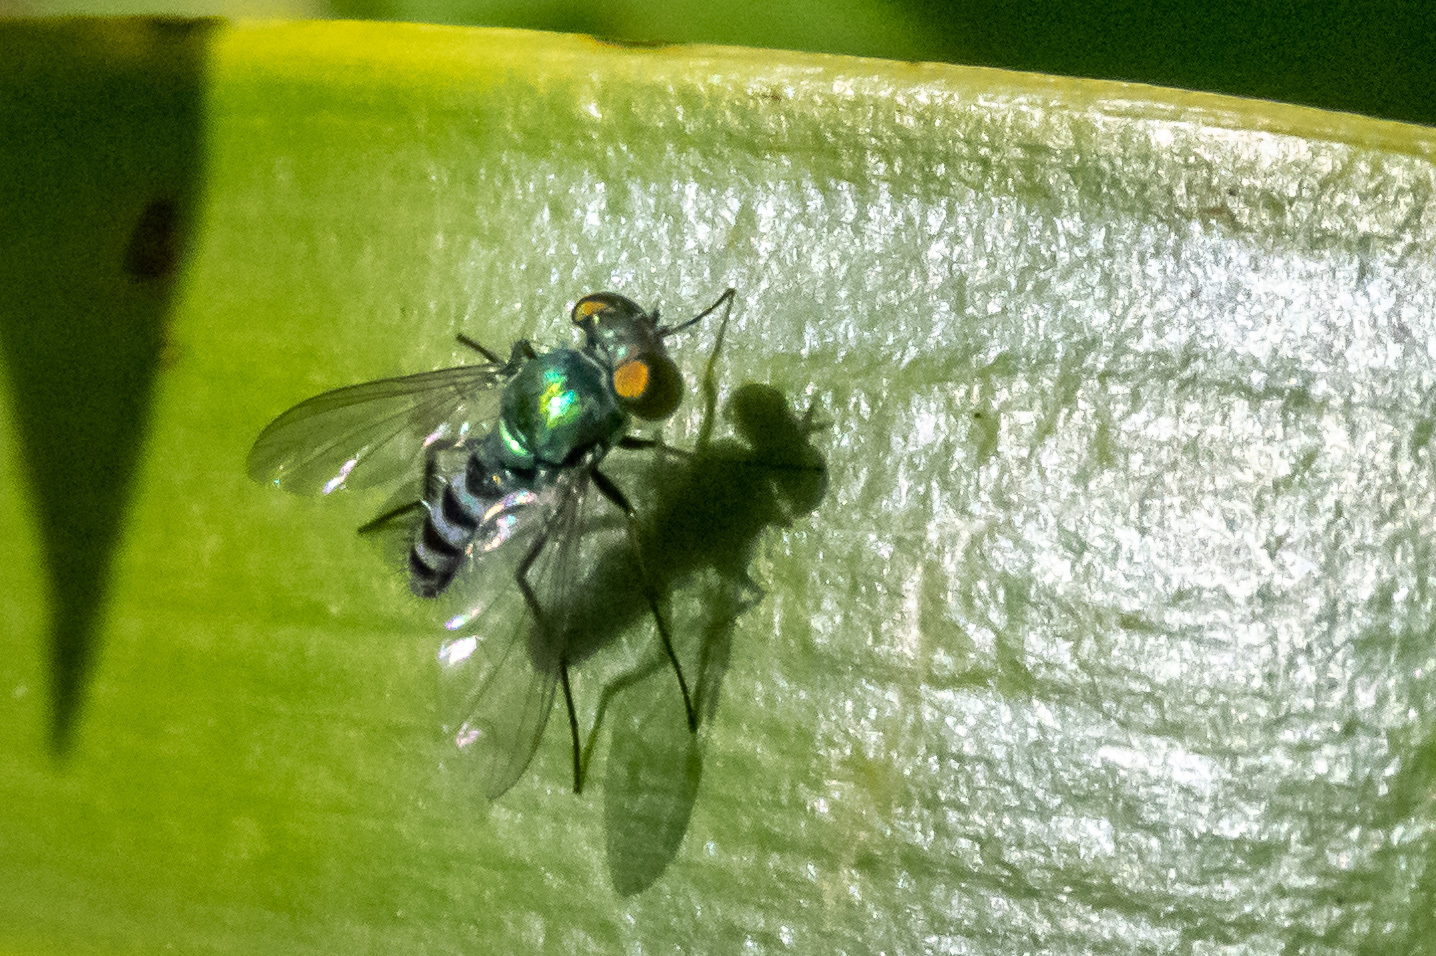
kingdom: Animalia
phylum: Arthropoda
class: Insecta
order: Diptera
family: Dolichopodidae
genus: Condylostylus
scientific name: Condylostylus pruinosus
